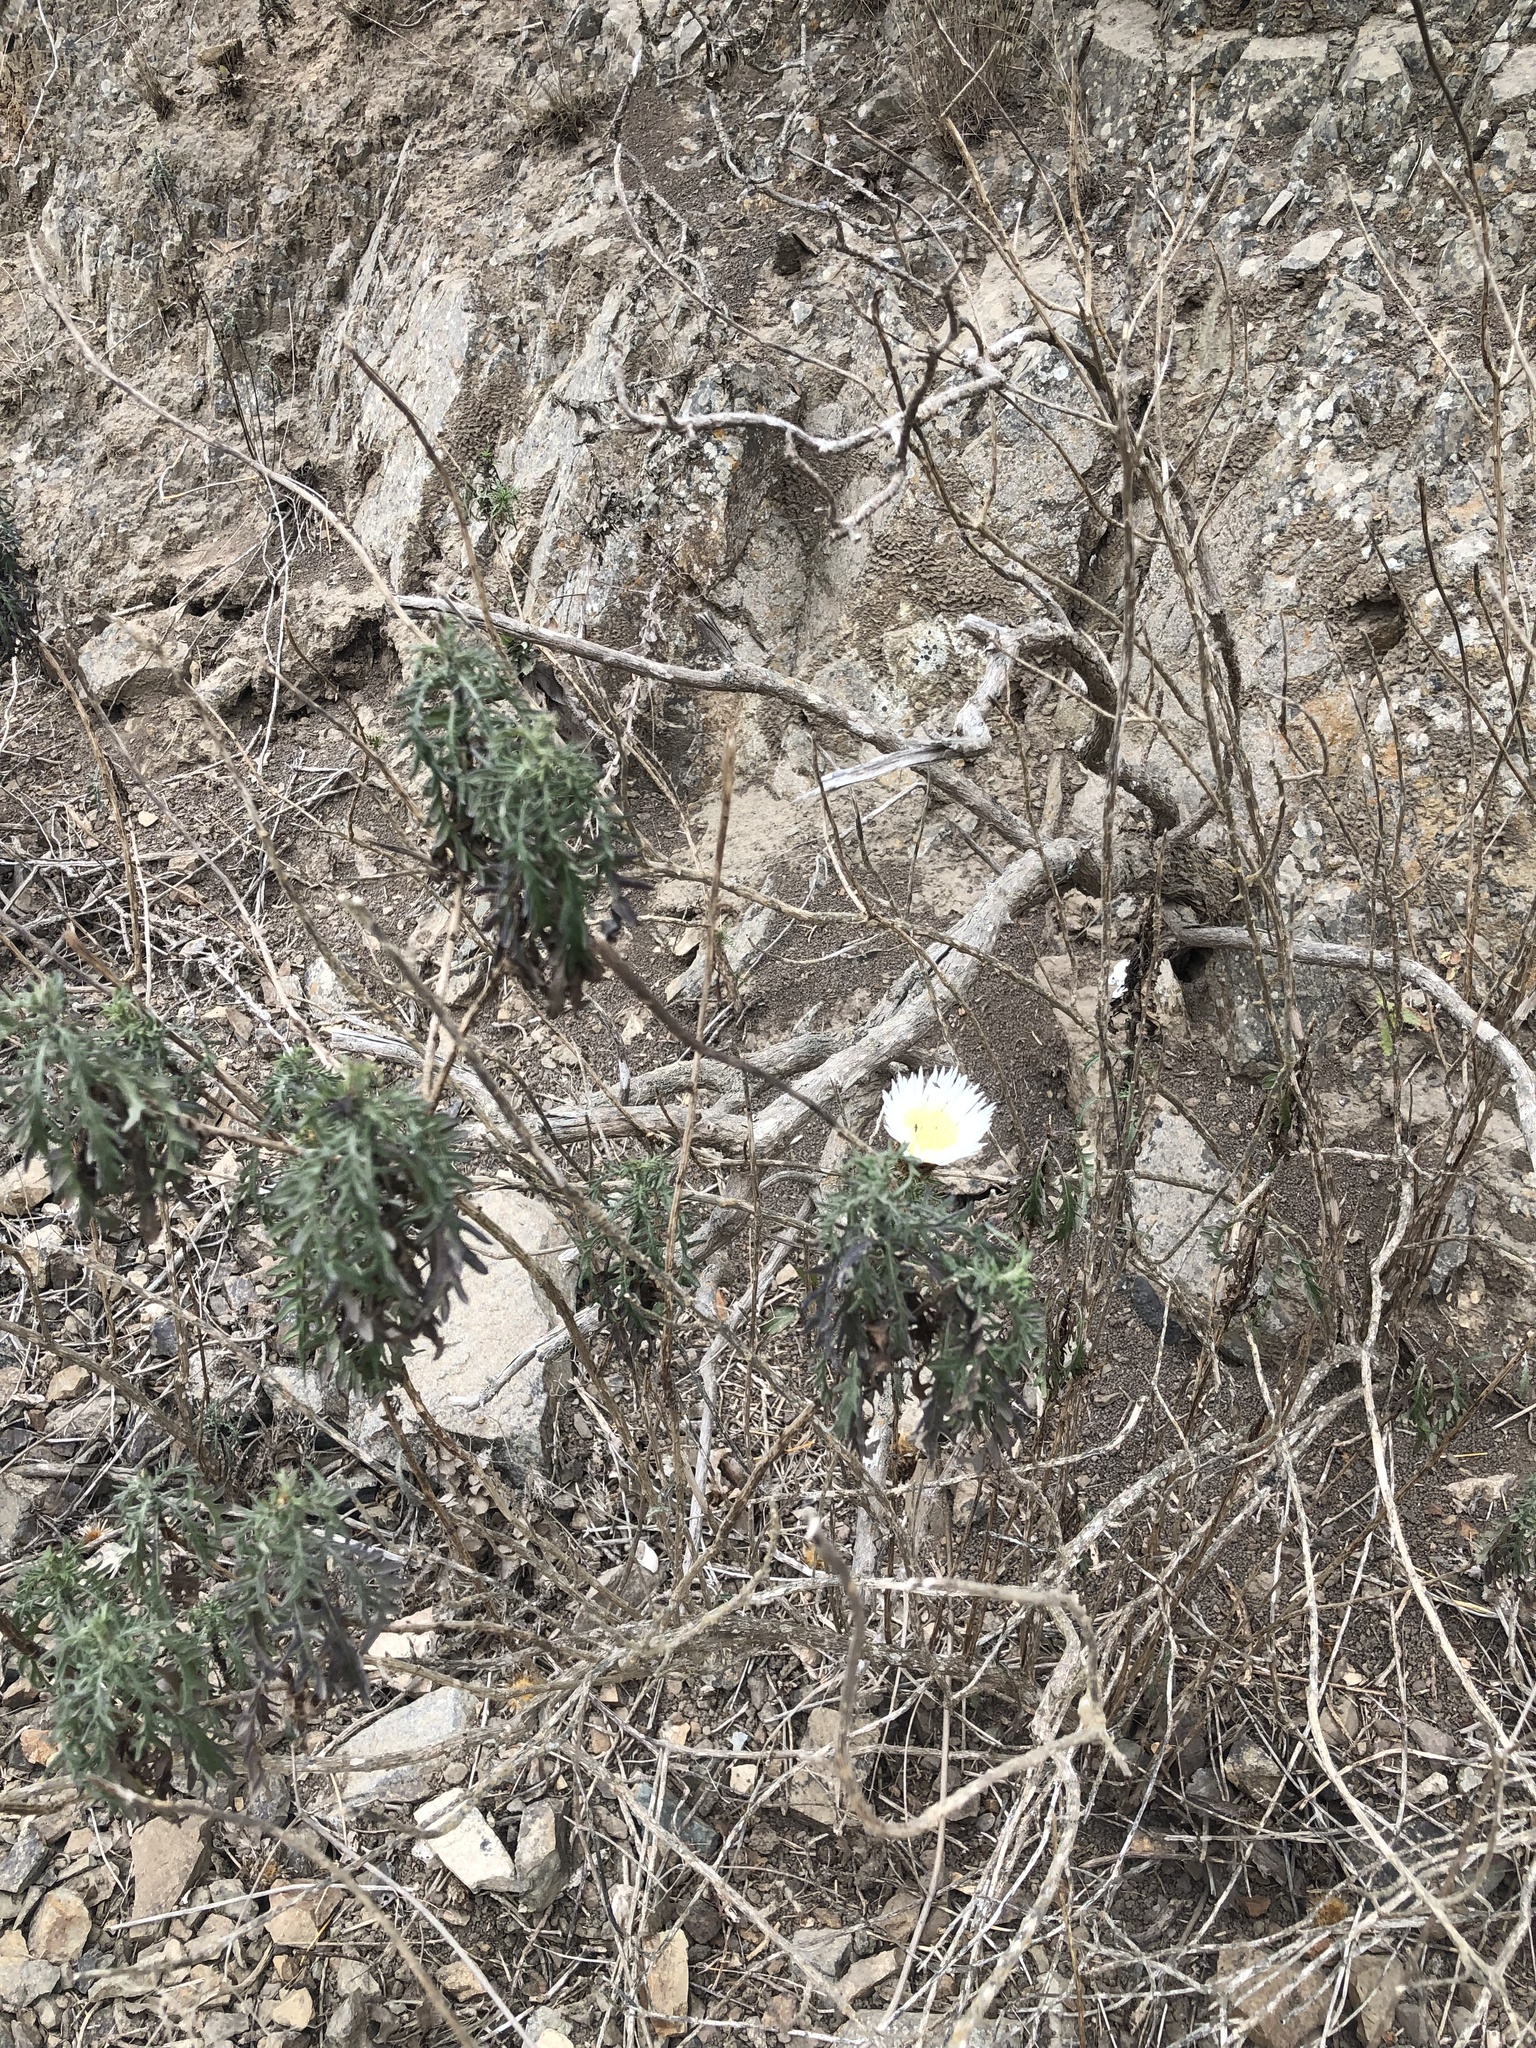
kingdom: Plantae
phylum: Tracheophyta
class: Magnoliopsida
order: Asterales
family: Asteraceae
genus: Plectocephalus
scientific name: Plectocephalus chilensis
